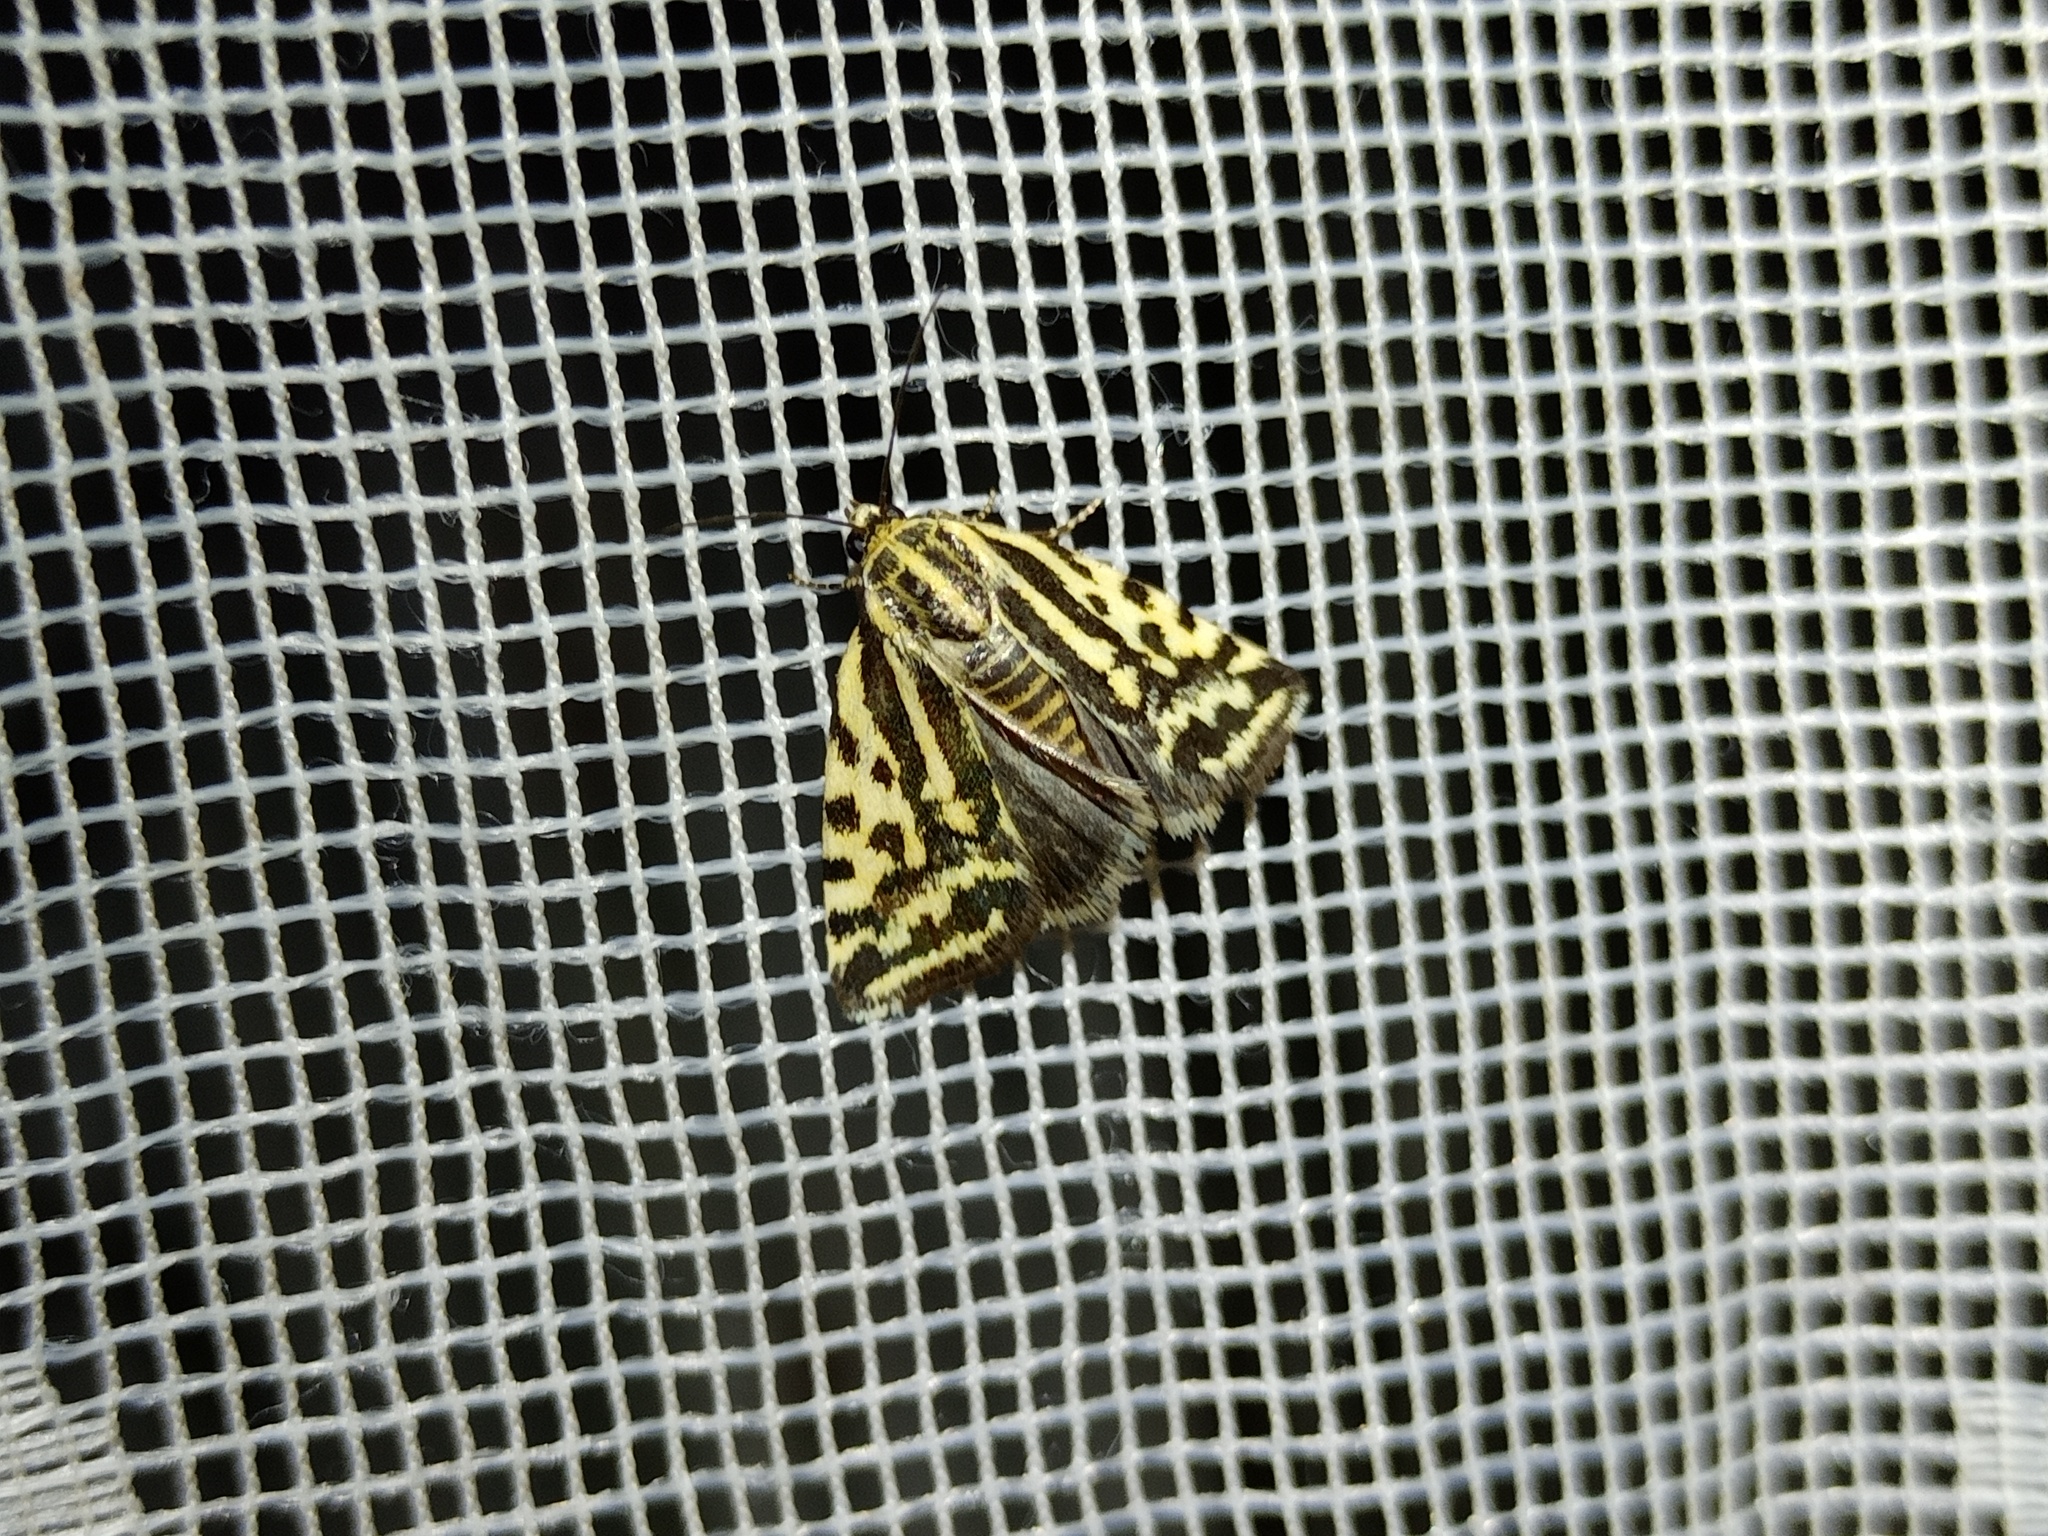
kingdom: Animalia
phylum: Arthropoda
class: Insecta
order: Lepidoptera
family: Noctuidae
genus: Acontia
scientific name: Acontia trabealis
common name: Spotted sulphur
